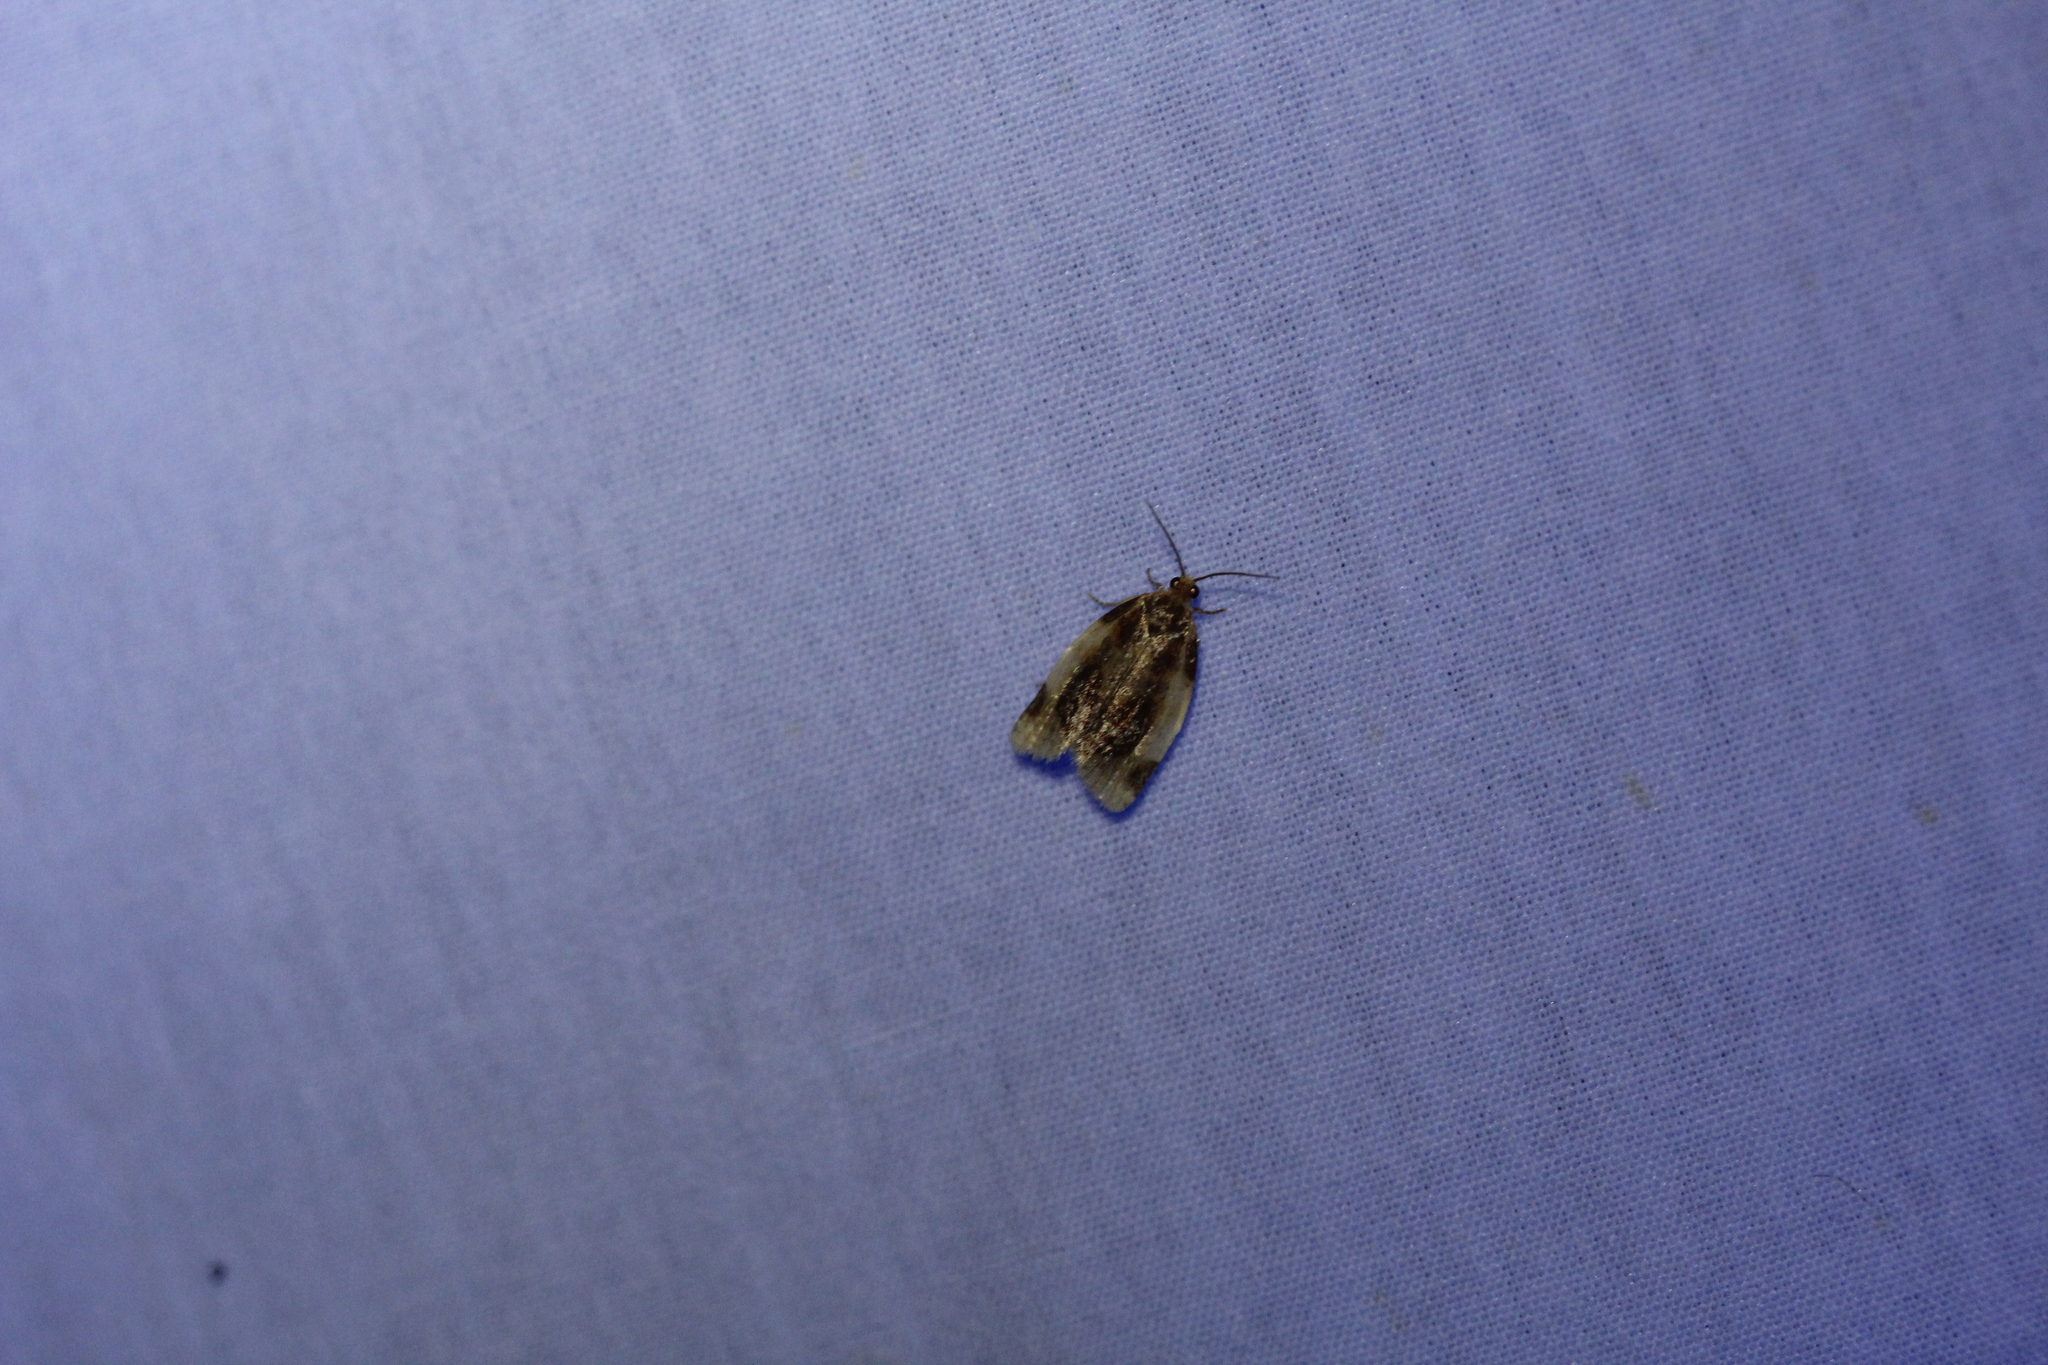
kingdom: Animalia
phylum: Arthropoda
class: Insecta
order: Lepidoptera
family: Tortricidae
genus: Clepsis
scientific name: Clepsis melaleucanus
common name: American apple tortrix
